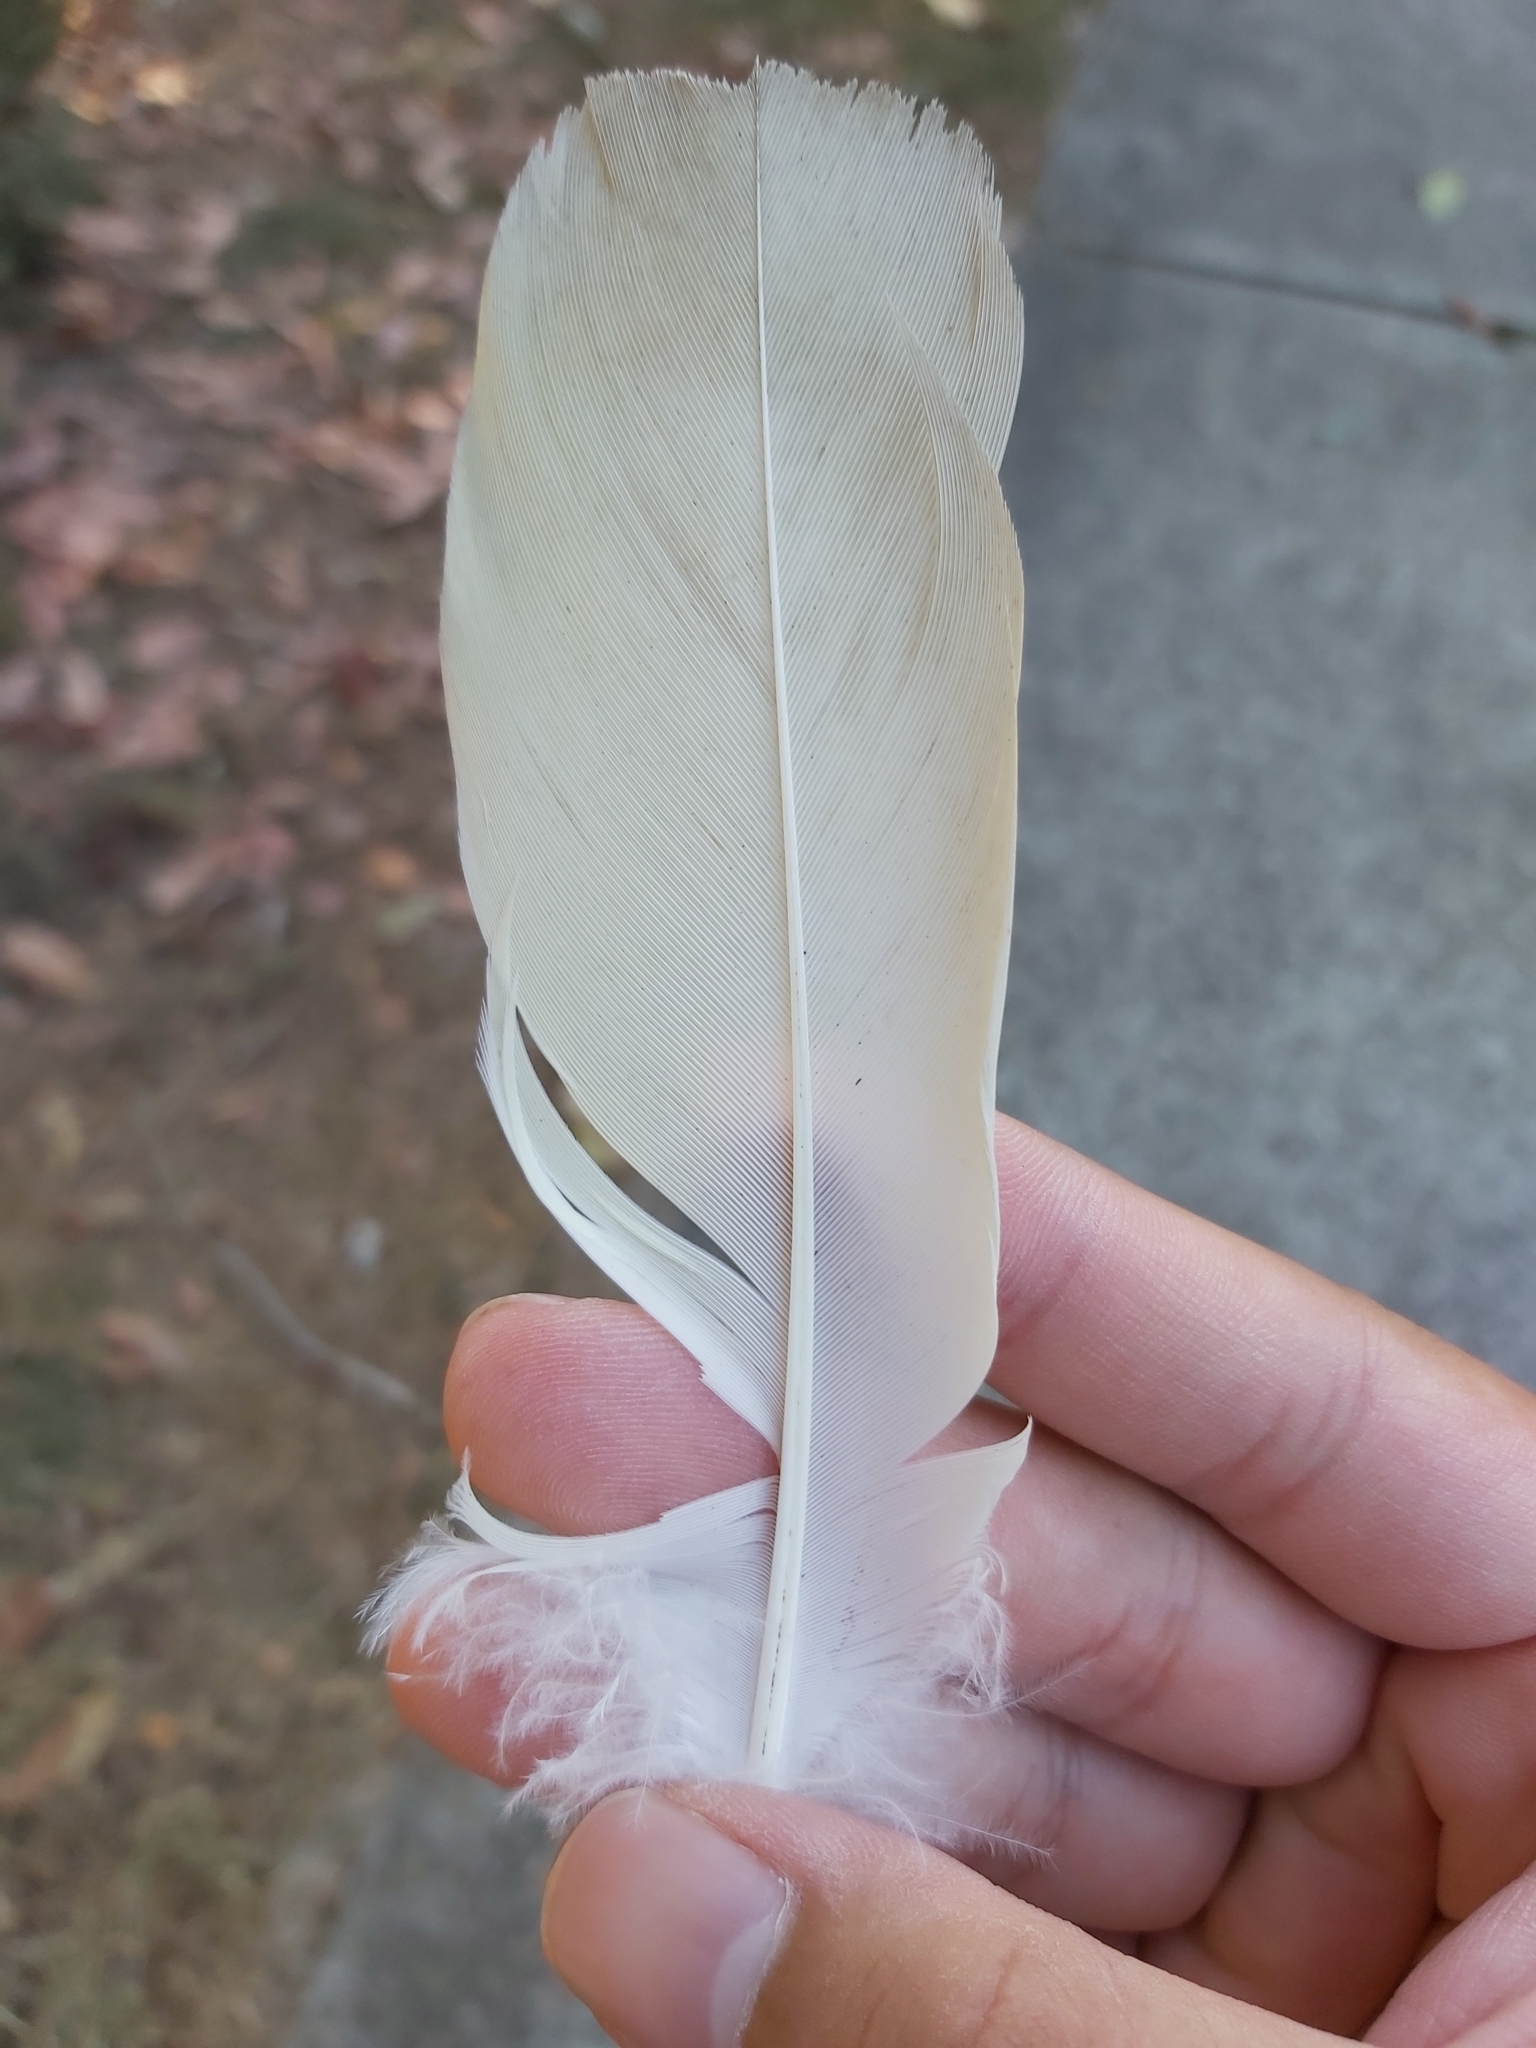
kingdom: Animalia
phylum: Chordata
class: Aves
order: Psittaciformes
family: Psittacidae
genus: Cacatua
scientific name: Cacatua sanguinea
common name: Little corella
